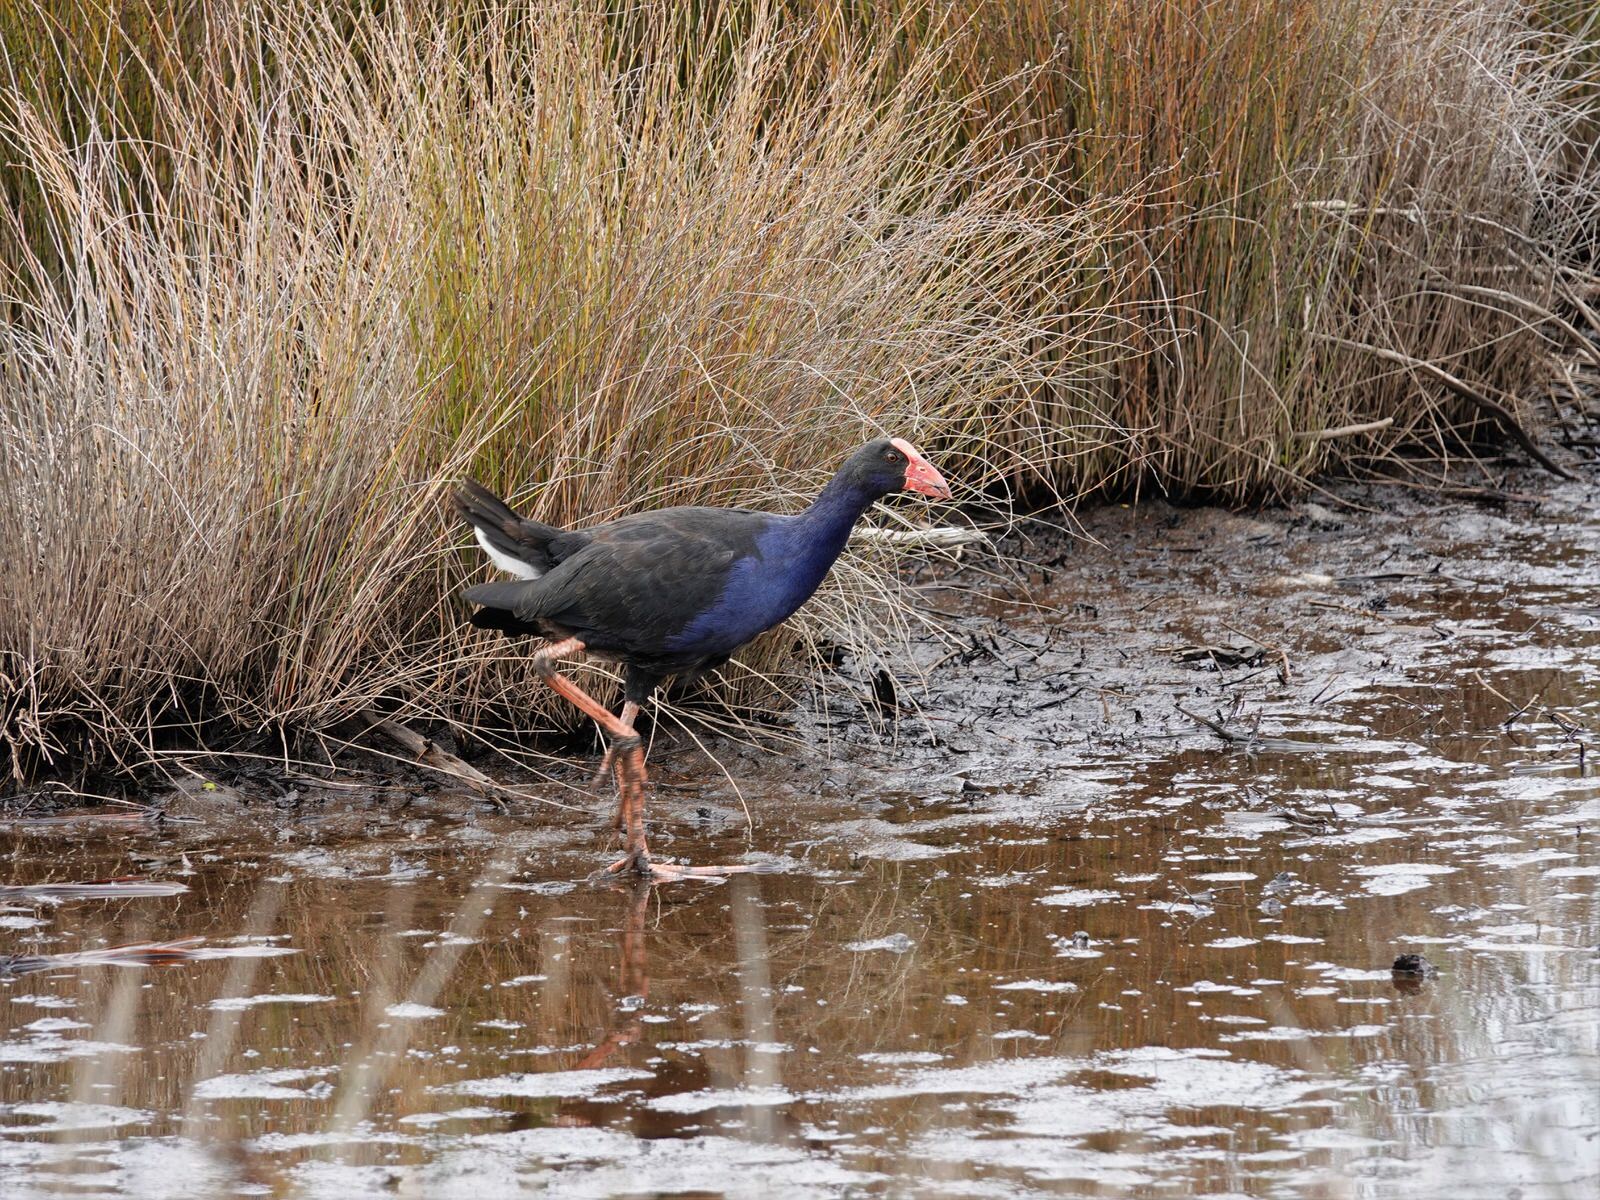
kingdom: Animalia
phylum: Chordata
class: Aves
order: Gruiformes
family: Rallidae
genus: Porphyrio
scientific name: Porphyrio melanotus
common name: Australasian swamphen
